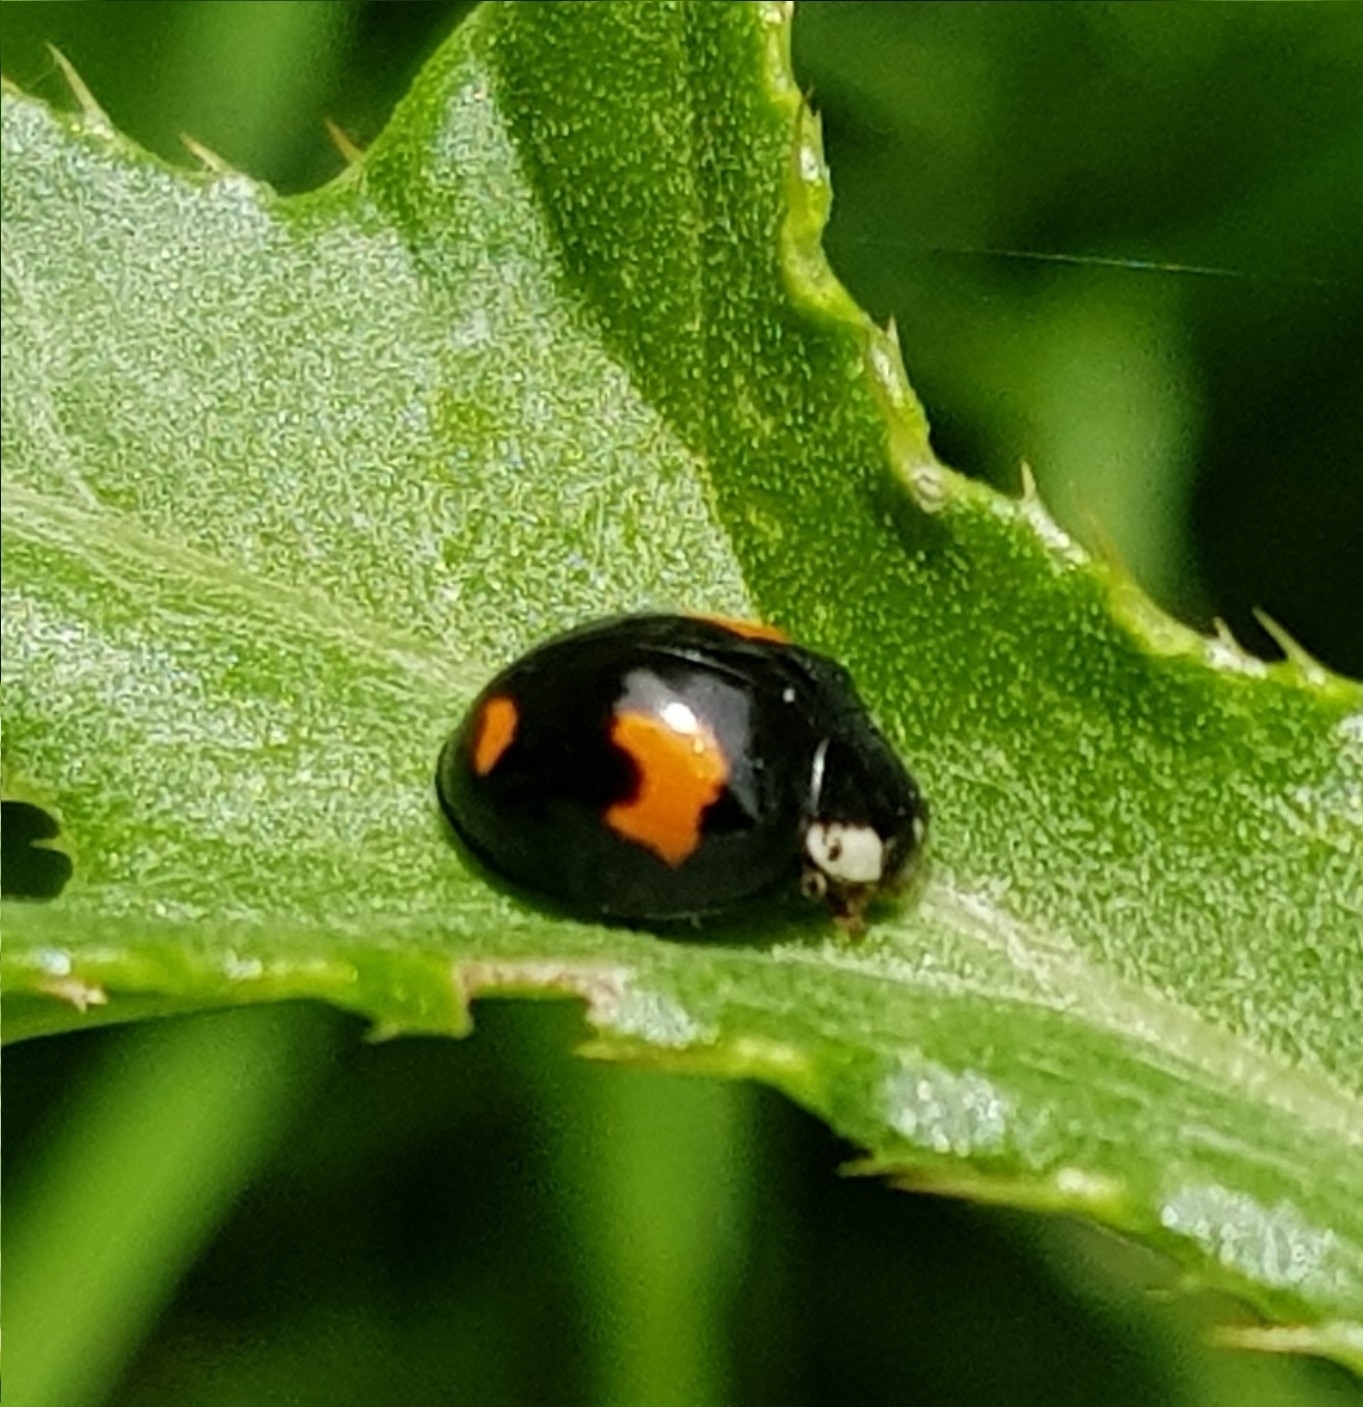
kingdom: Animalia
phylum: Arthropoda
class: Insecta
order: Coleoptera
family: Coccinellidae
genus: Harmonia
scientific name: Harmonia axyridis
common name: Harlequin ladybird
